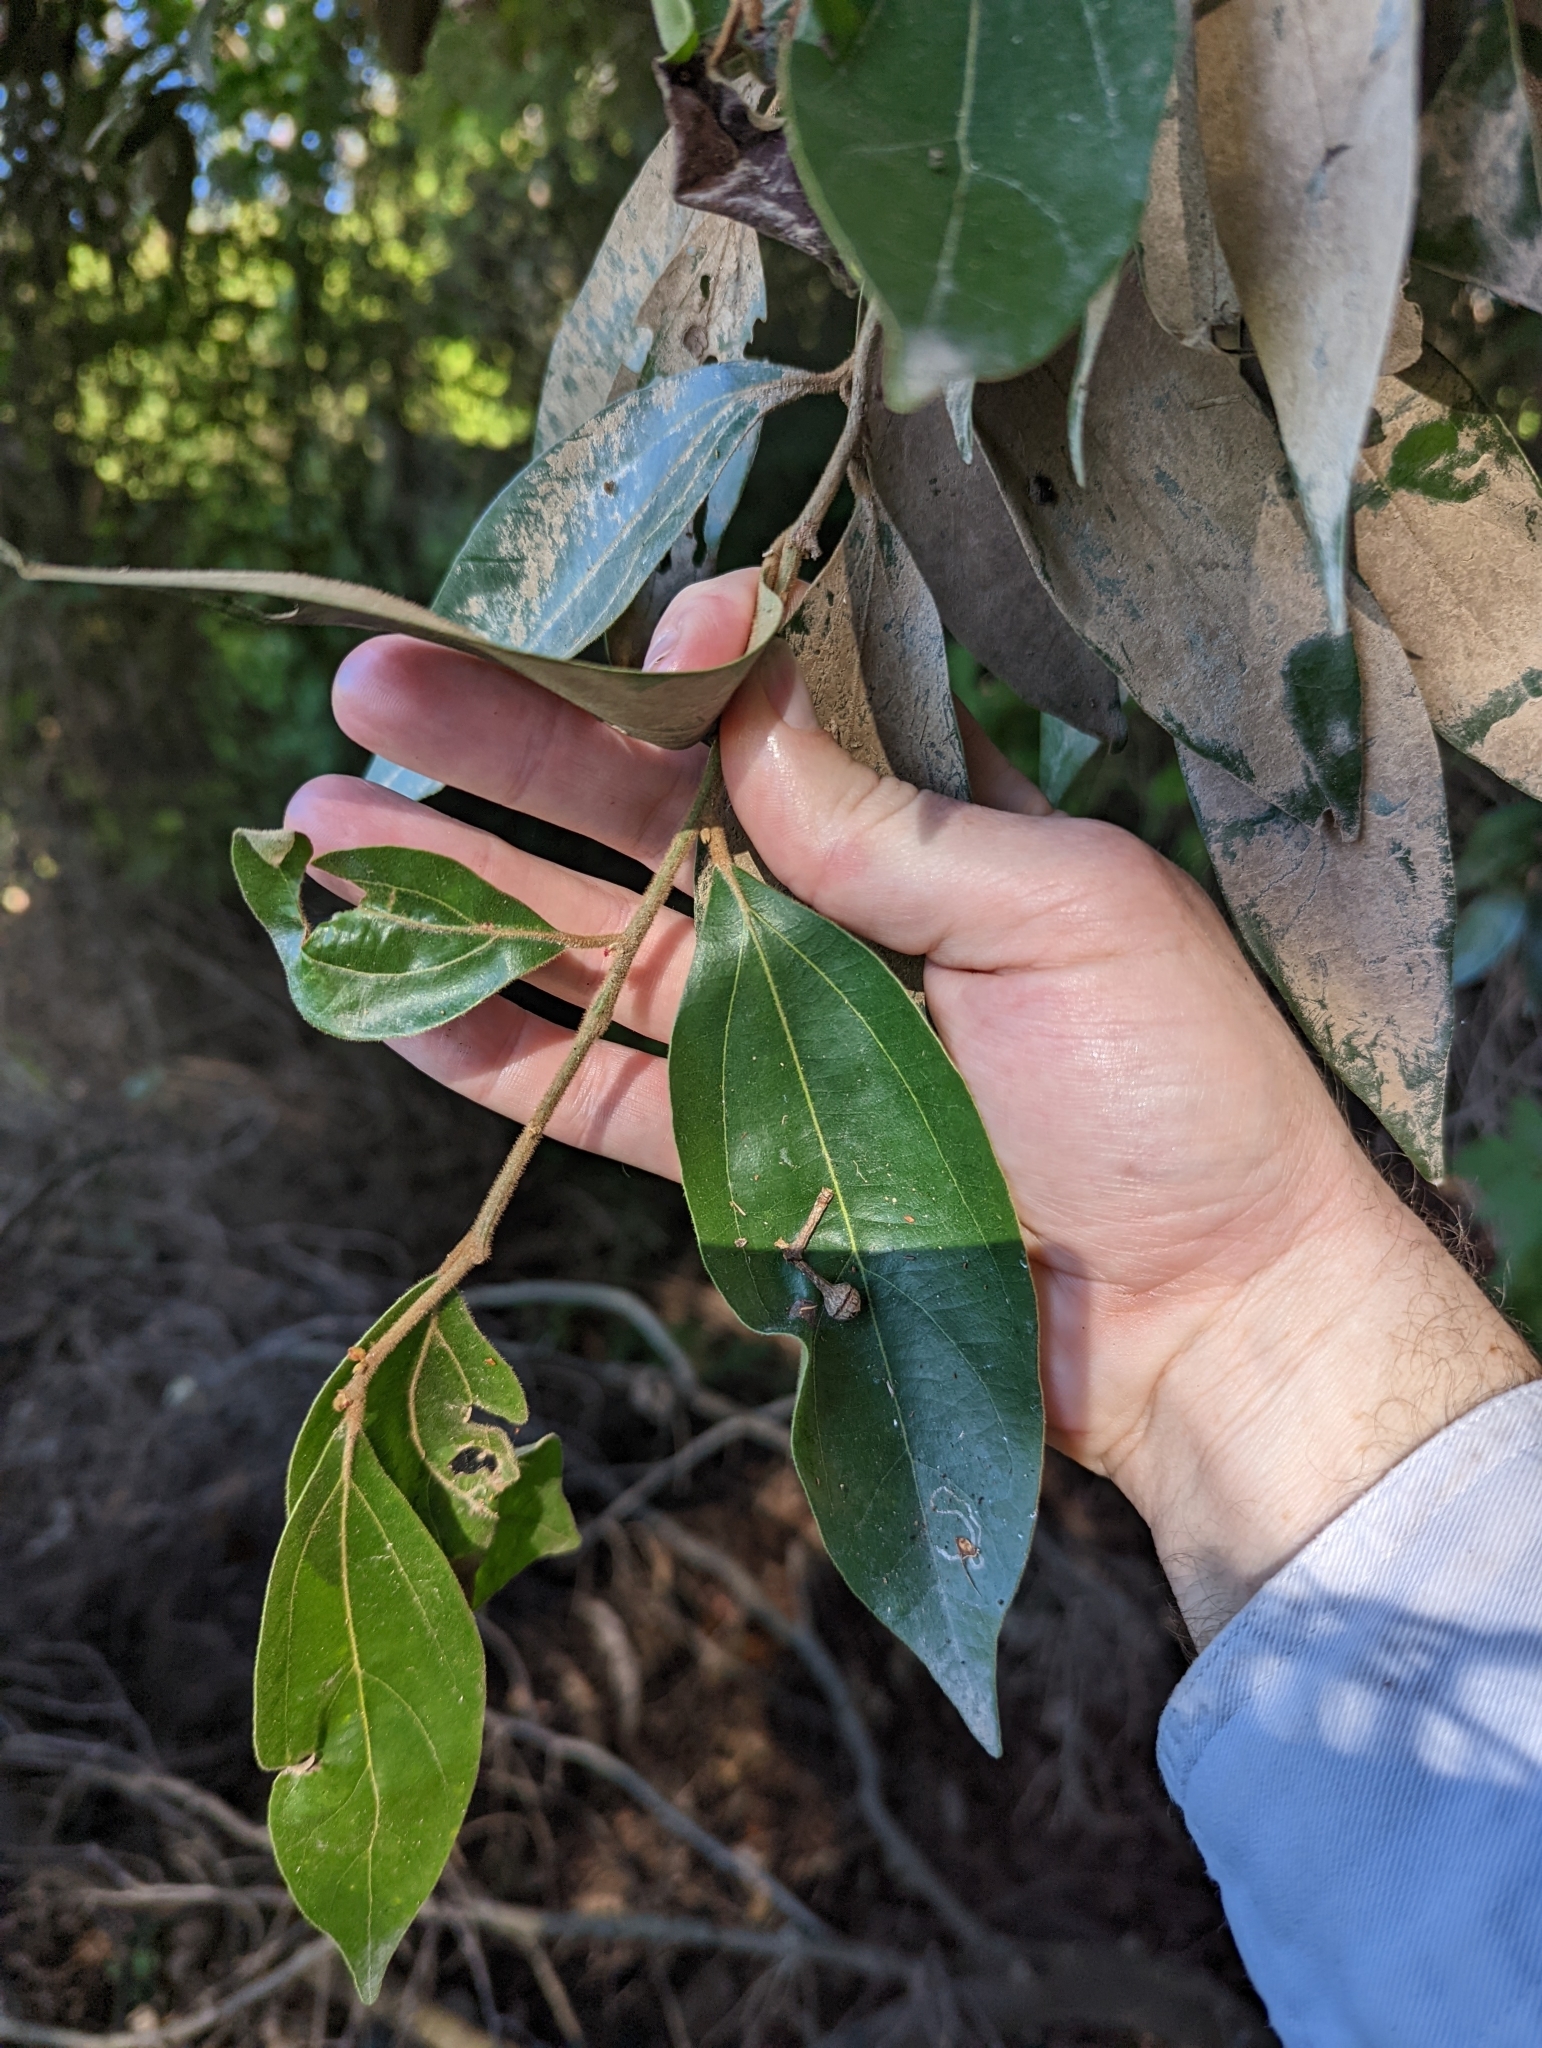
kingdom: Plantae
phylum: Tracheophyta
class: Magnoliopsida
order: Laurales
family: Lauraceae
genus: Cryptocarya
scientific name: Cryptocarya triplinervis
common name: Three-vein cryptocarya
